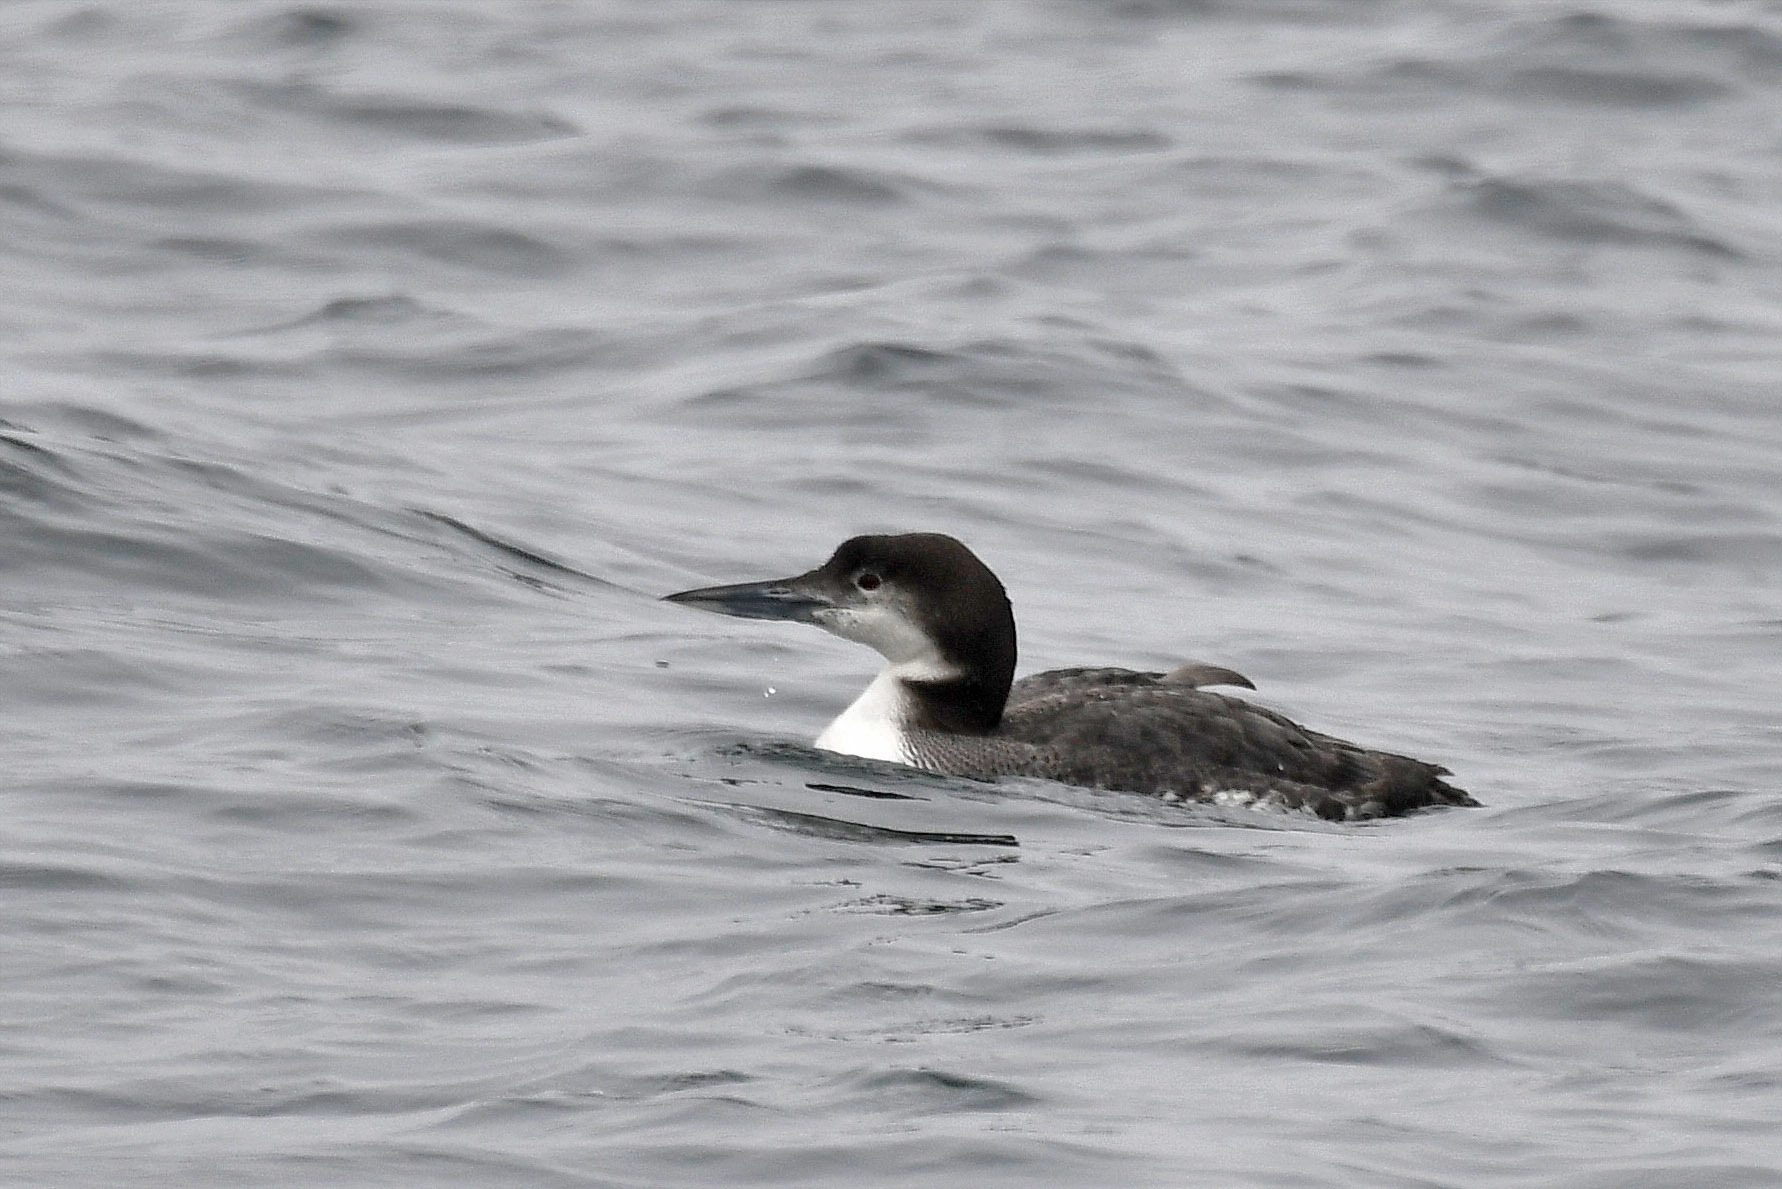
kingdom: Animalia
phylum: Chordata
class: Aves
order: Gaviiformes
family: Gaviidae
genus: Gavia
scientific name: Gavia immer
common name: Common loon
